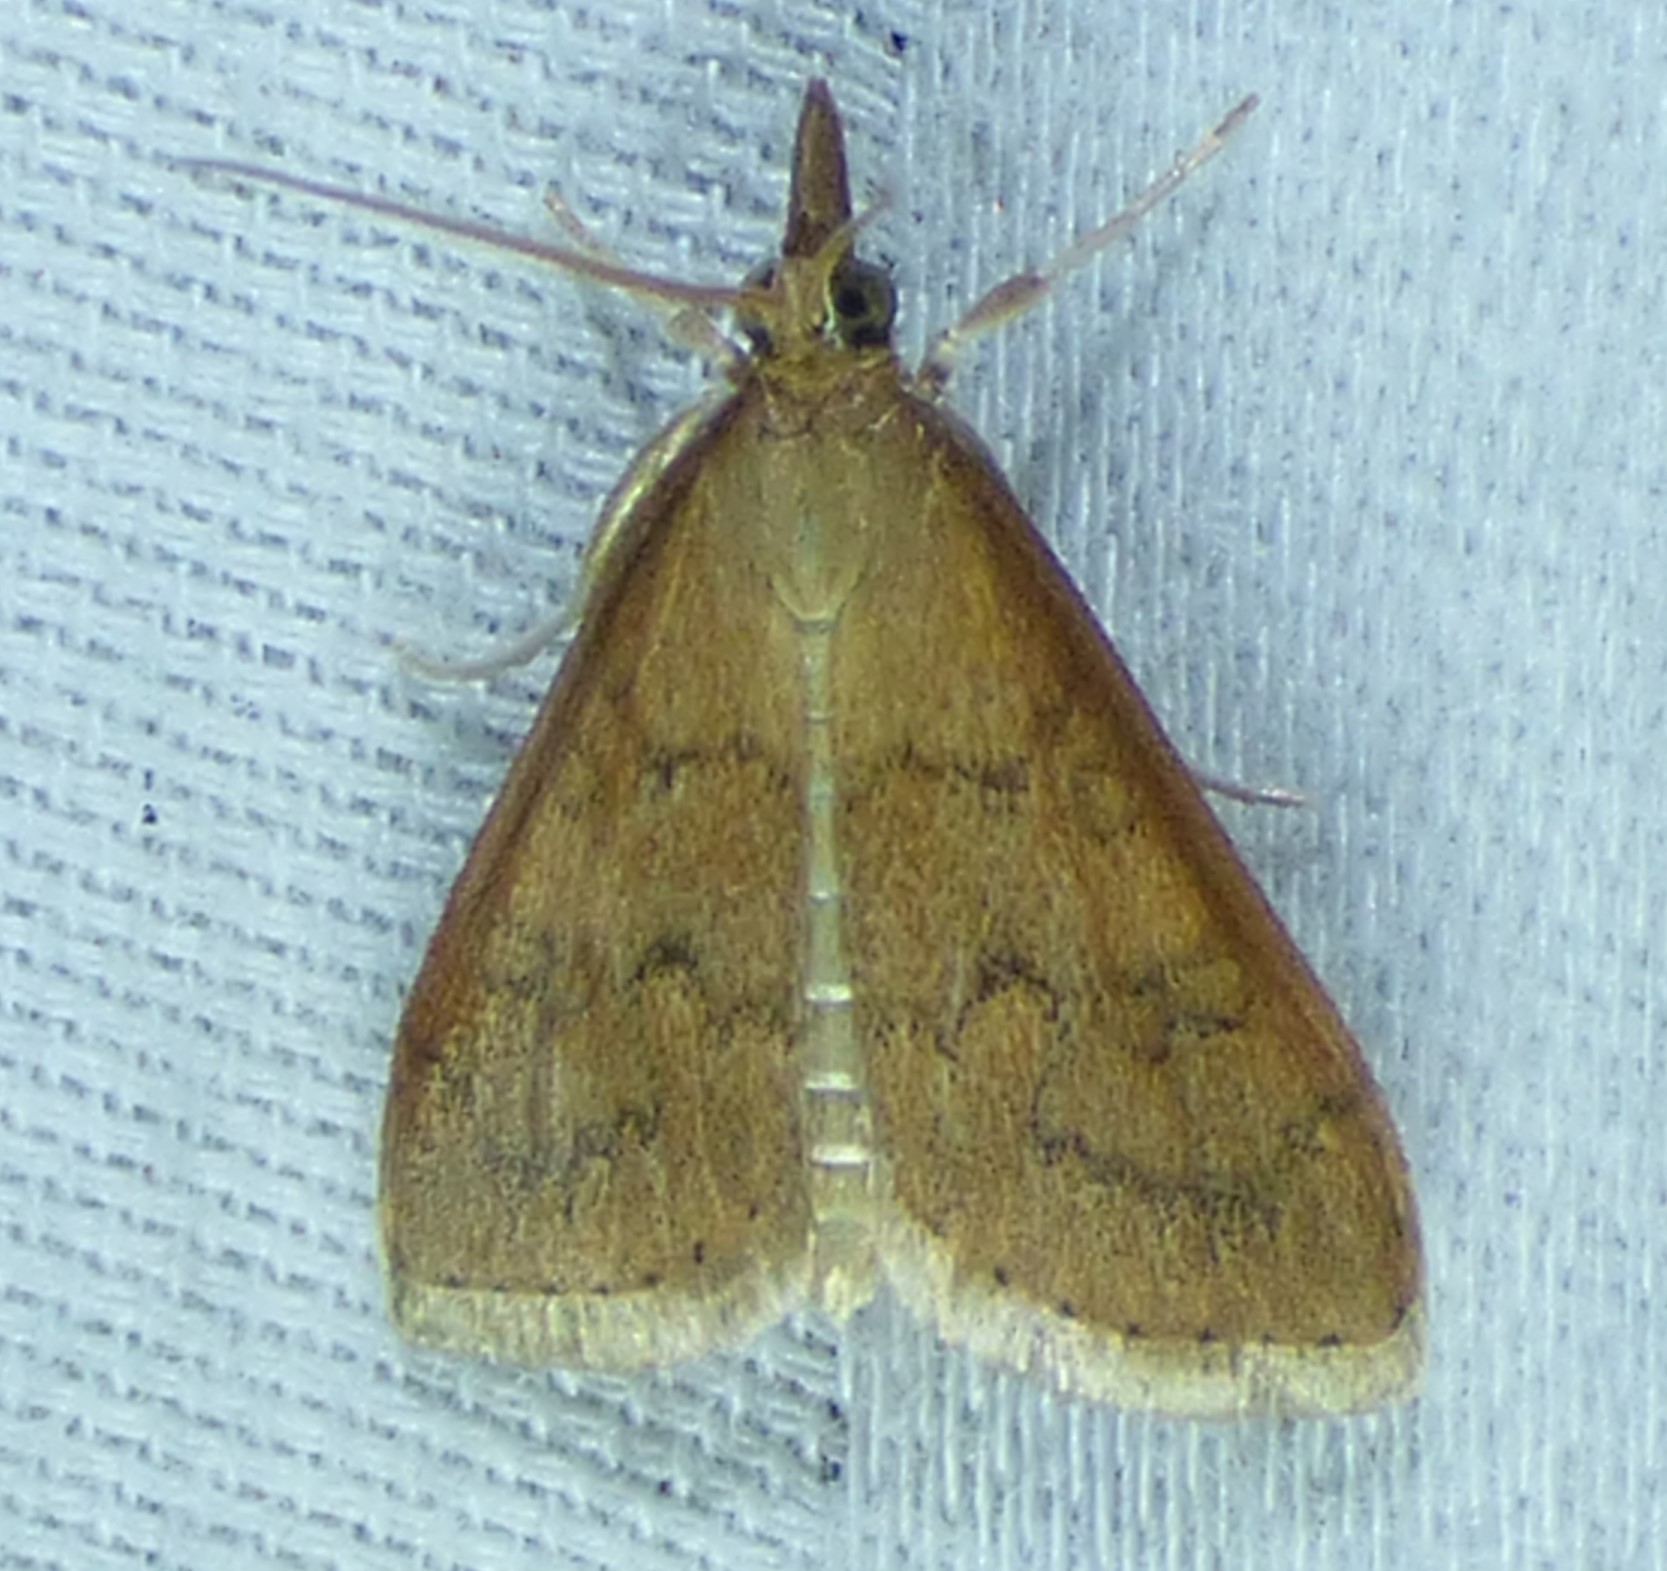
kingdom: Animalia
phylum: Arthropoda
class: Insecta
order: Lepidoptera
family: Crambidae
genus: Udea
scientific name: Udea rubigalis
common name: Celery leaftier moth
